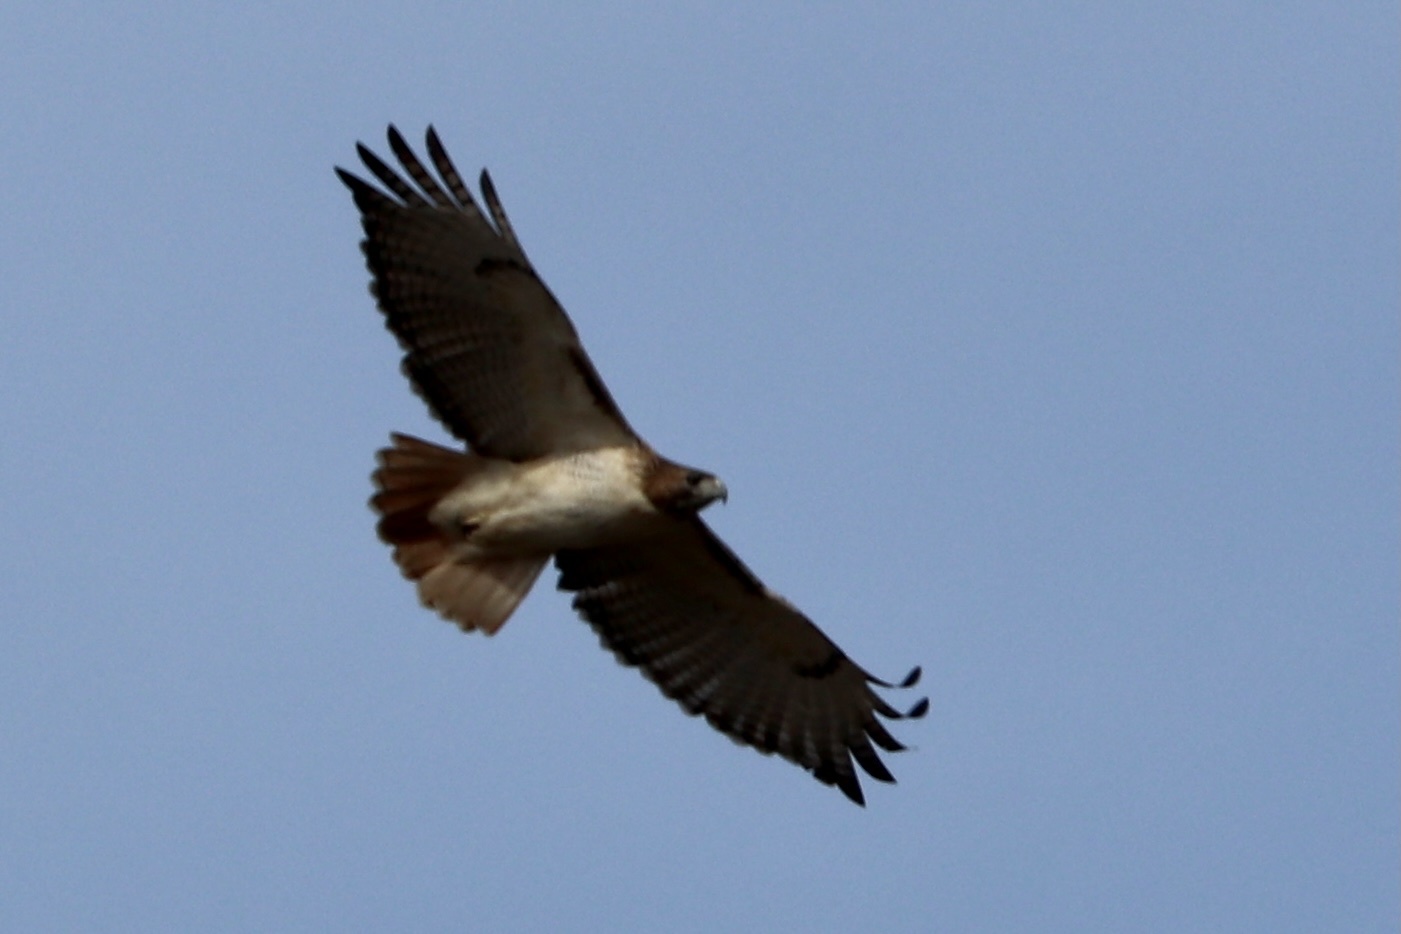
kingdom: Animalia
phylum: Chordata
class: Aves
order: Accipitriformes
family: Accipitridae
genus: Buteo
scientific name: Buteo jamaicensis
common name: Red-tailed hawk
